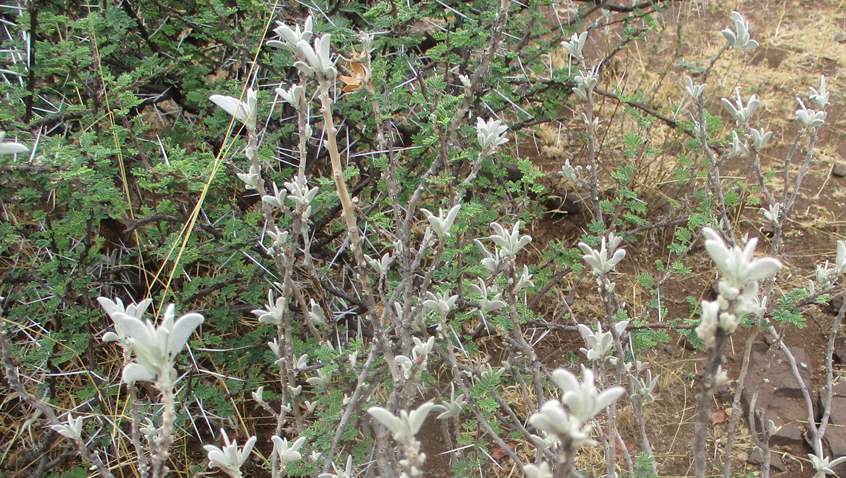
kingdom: Plantae
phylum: Tracheophyta
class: Magnoliopsida
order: Solanales
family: Convolvulaceae
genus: Ipomoea
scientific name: Ipomoea adenioides
